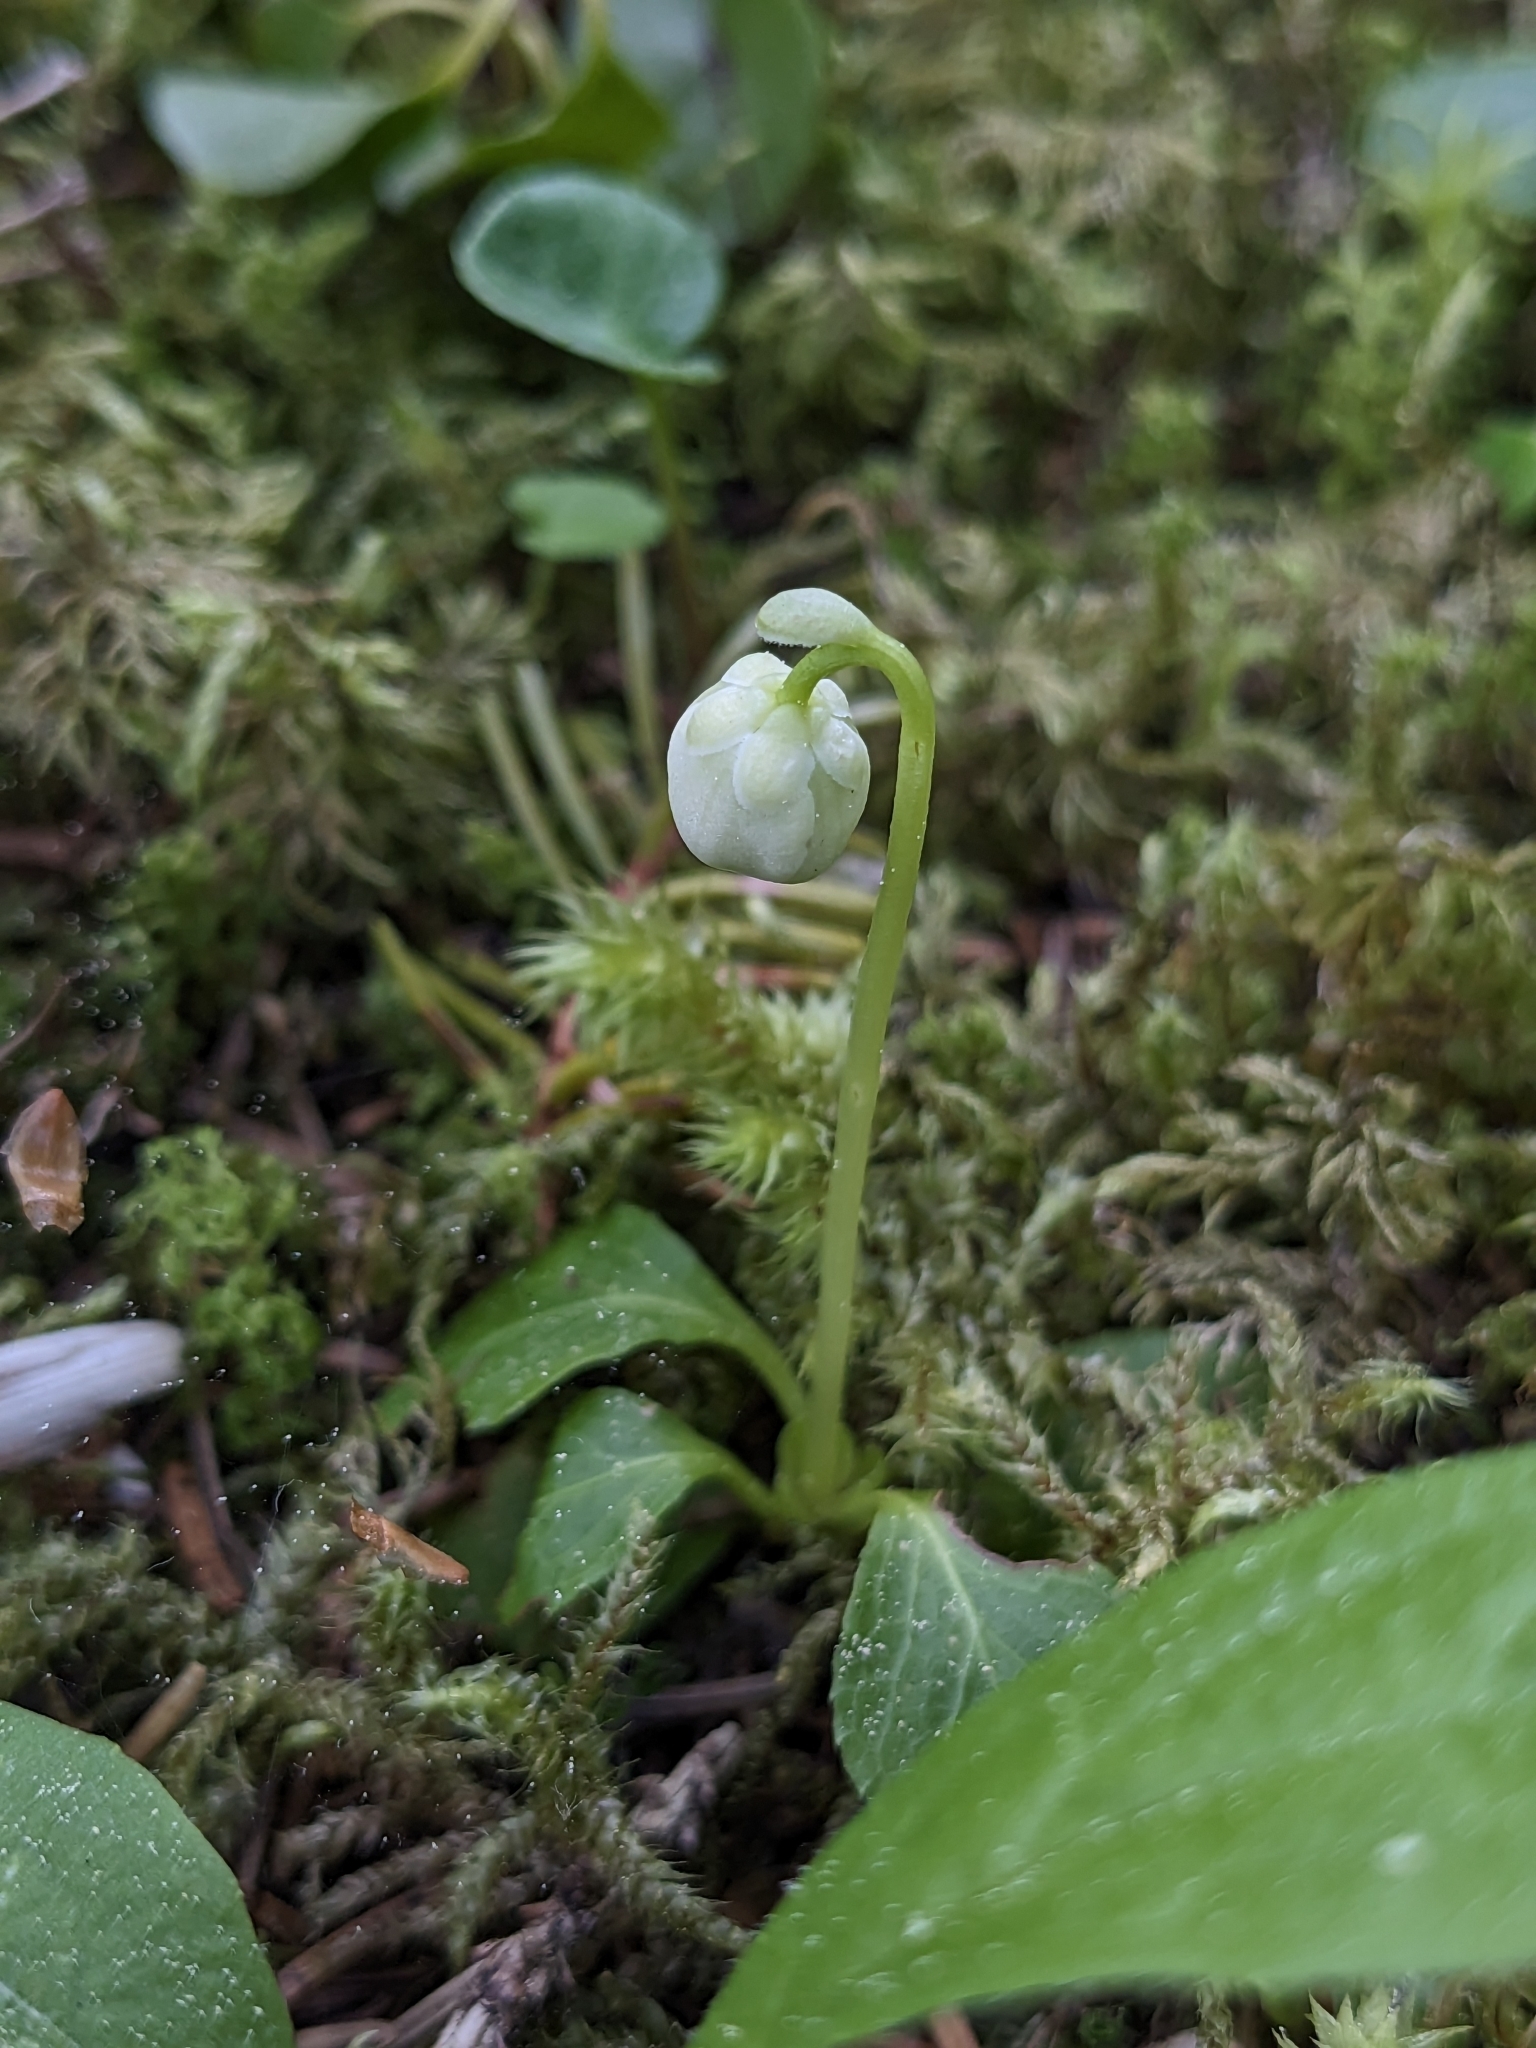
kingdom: Plantae
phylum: Tracheophyta
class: Magnoliopsida
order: Ericales
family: Ericaceae
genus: Moneses
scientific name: Moneses uniflora
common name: One-flowered wintergreen
